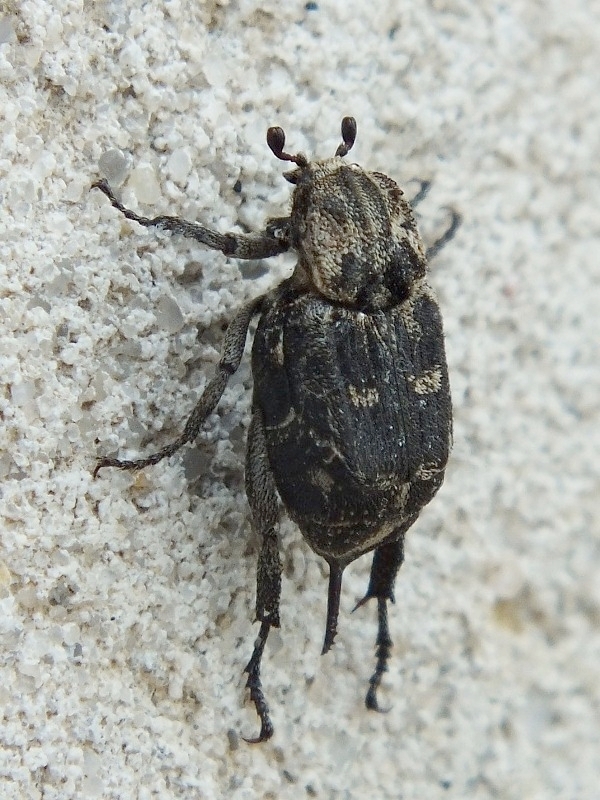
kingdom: Animalia
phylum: Arthropoda
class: Insecta
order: Coleoptera
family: Scarabaeidae
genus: Valgus
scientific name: Valgus hemipterus
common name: Bug flower chafer
